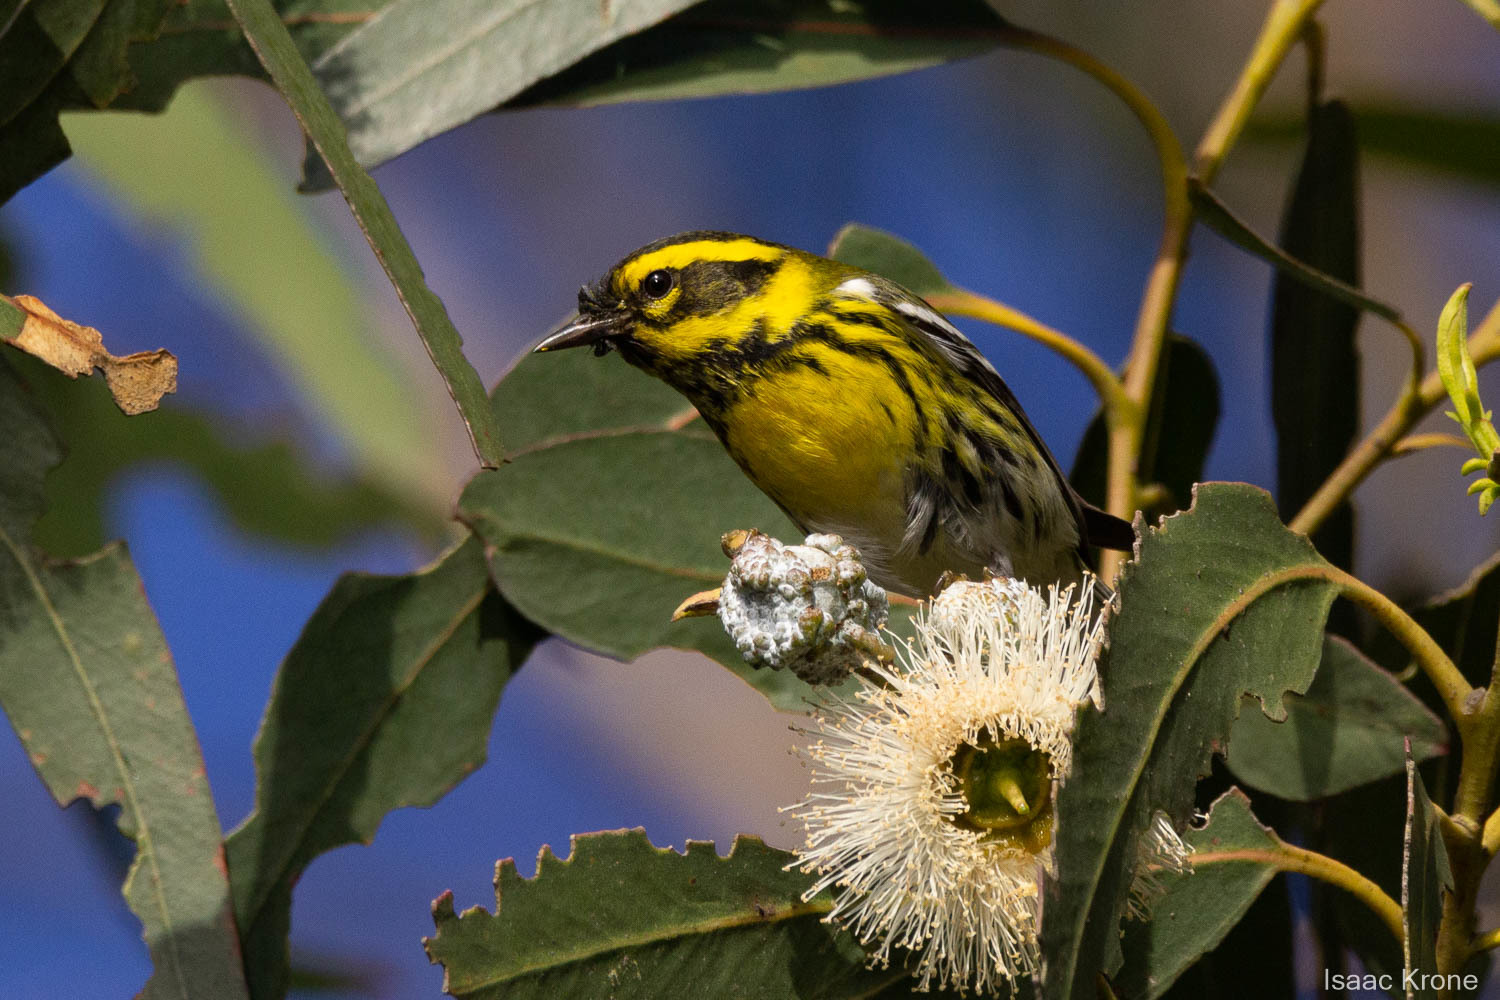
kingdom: Animalia
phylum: Chordata
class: Aves
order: Passeriformes
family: Parulidae
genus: Setophaga
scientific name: Setophaga townsendi
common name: Townsend's warbler
